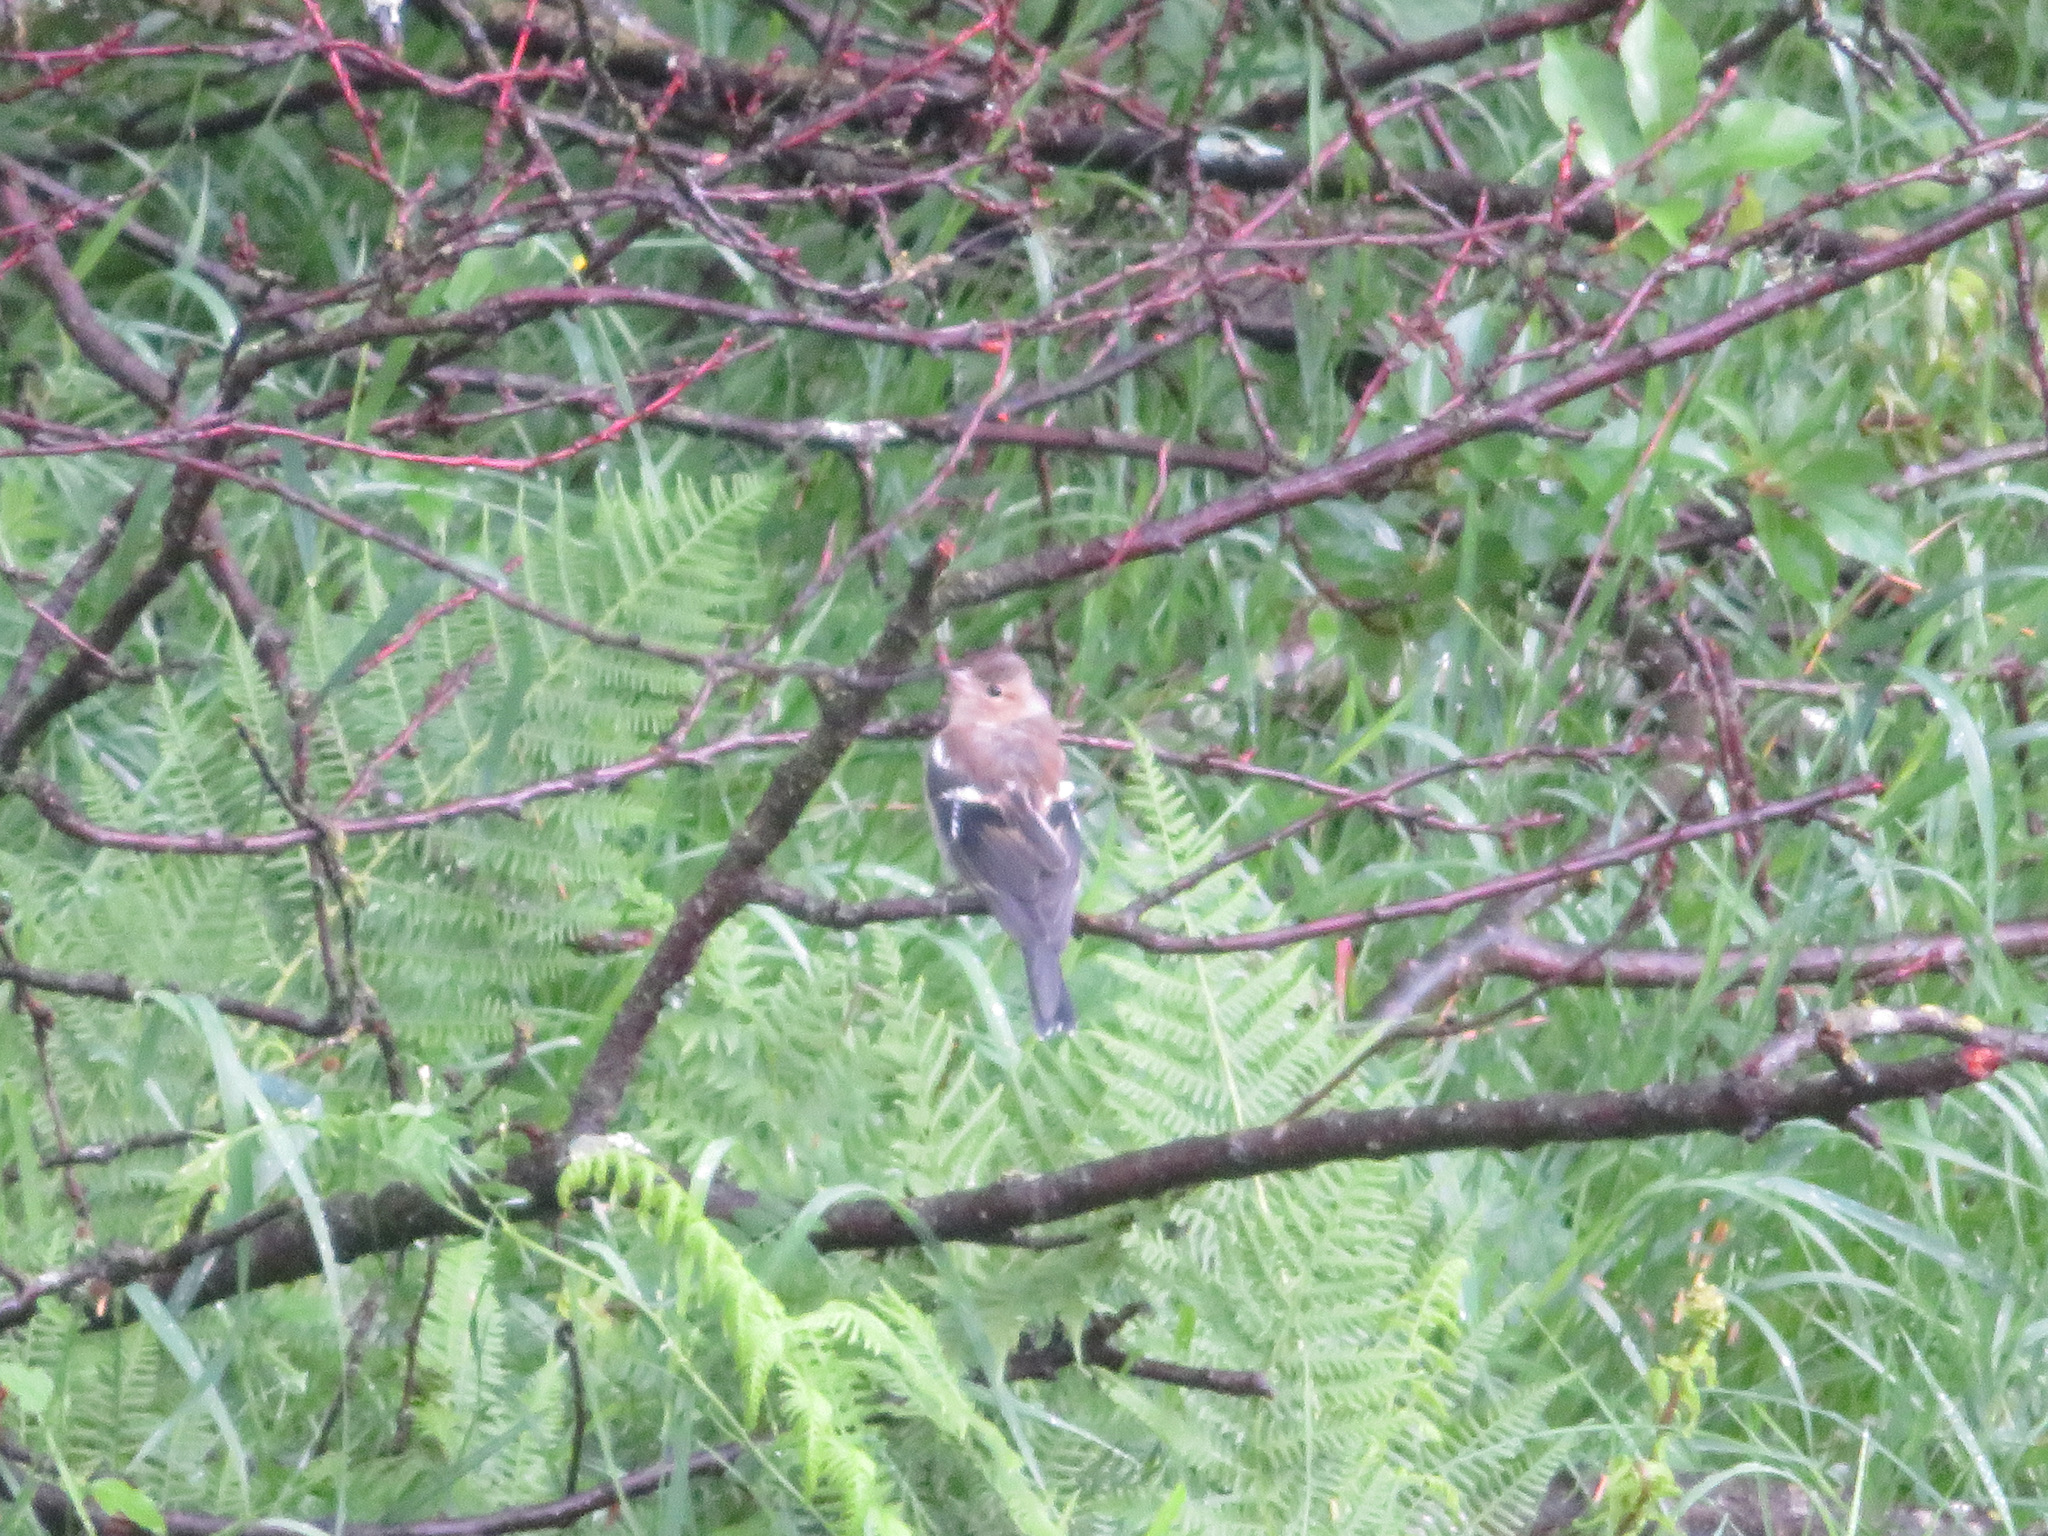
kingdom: Animalia
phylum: Chordata
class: Aves
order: Passeriformes
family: Fringillidae
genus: Fringilla
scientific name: Fringilla coelebs
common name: Common chaffinch
